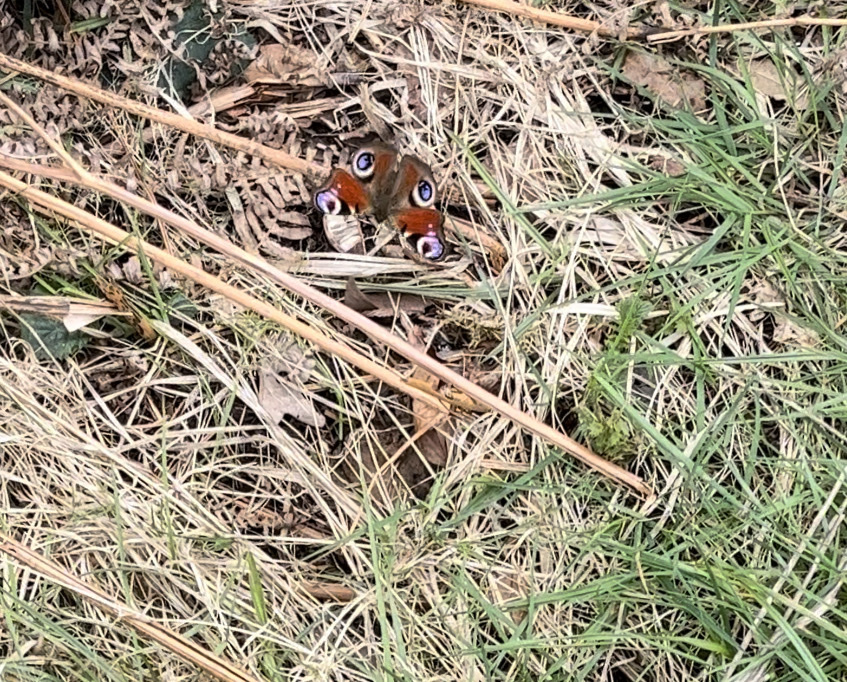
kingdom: Animalia
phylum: Arthropoda
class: Insecta
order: Lepidoptera
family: Nymphalidae
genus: Aglais
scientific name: Aglais io
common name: Peacock
